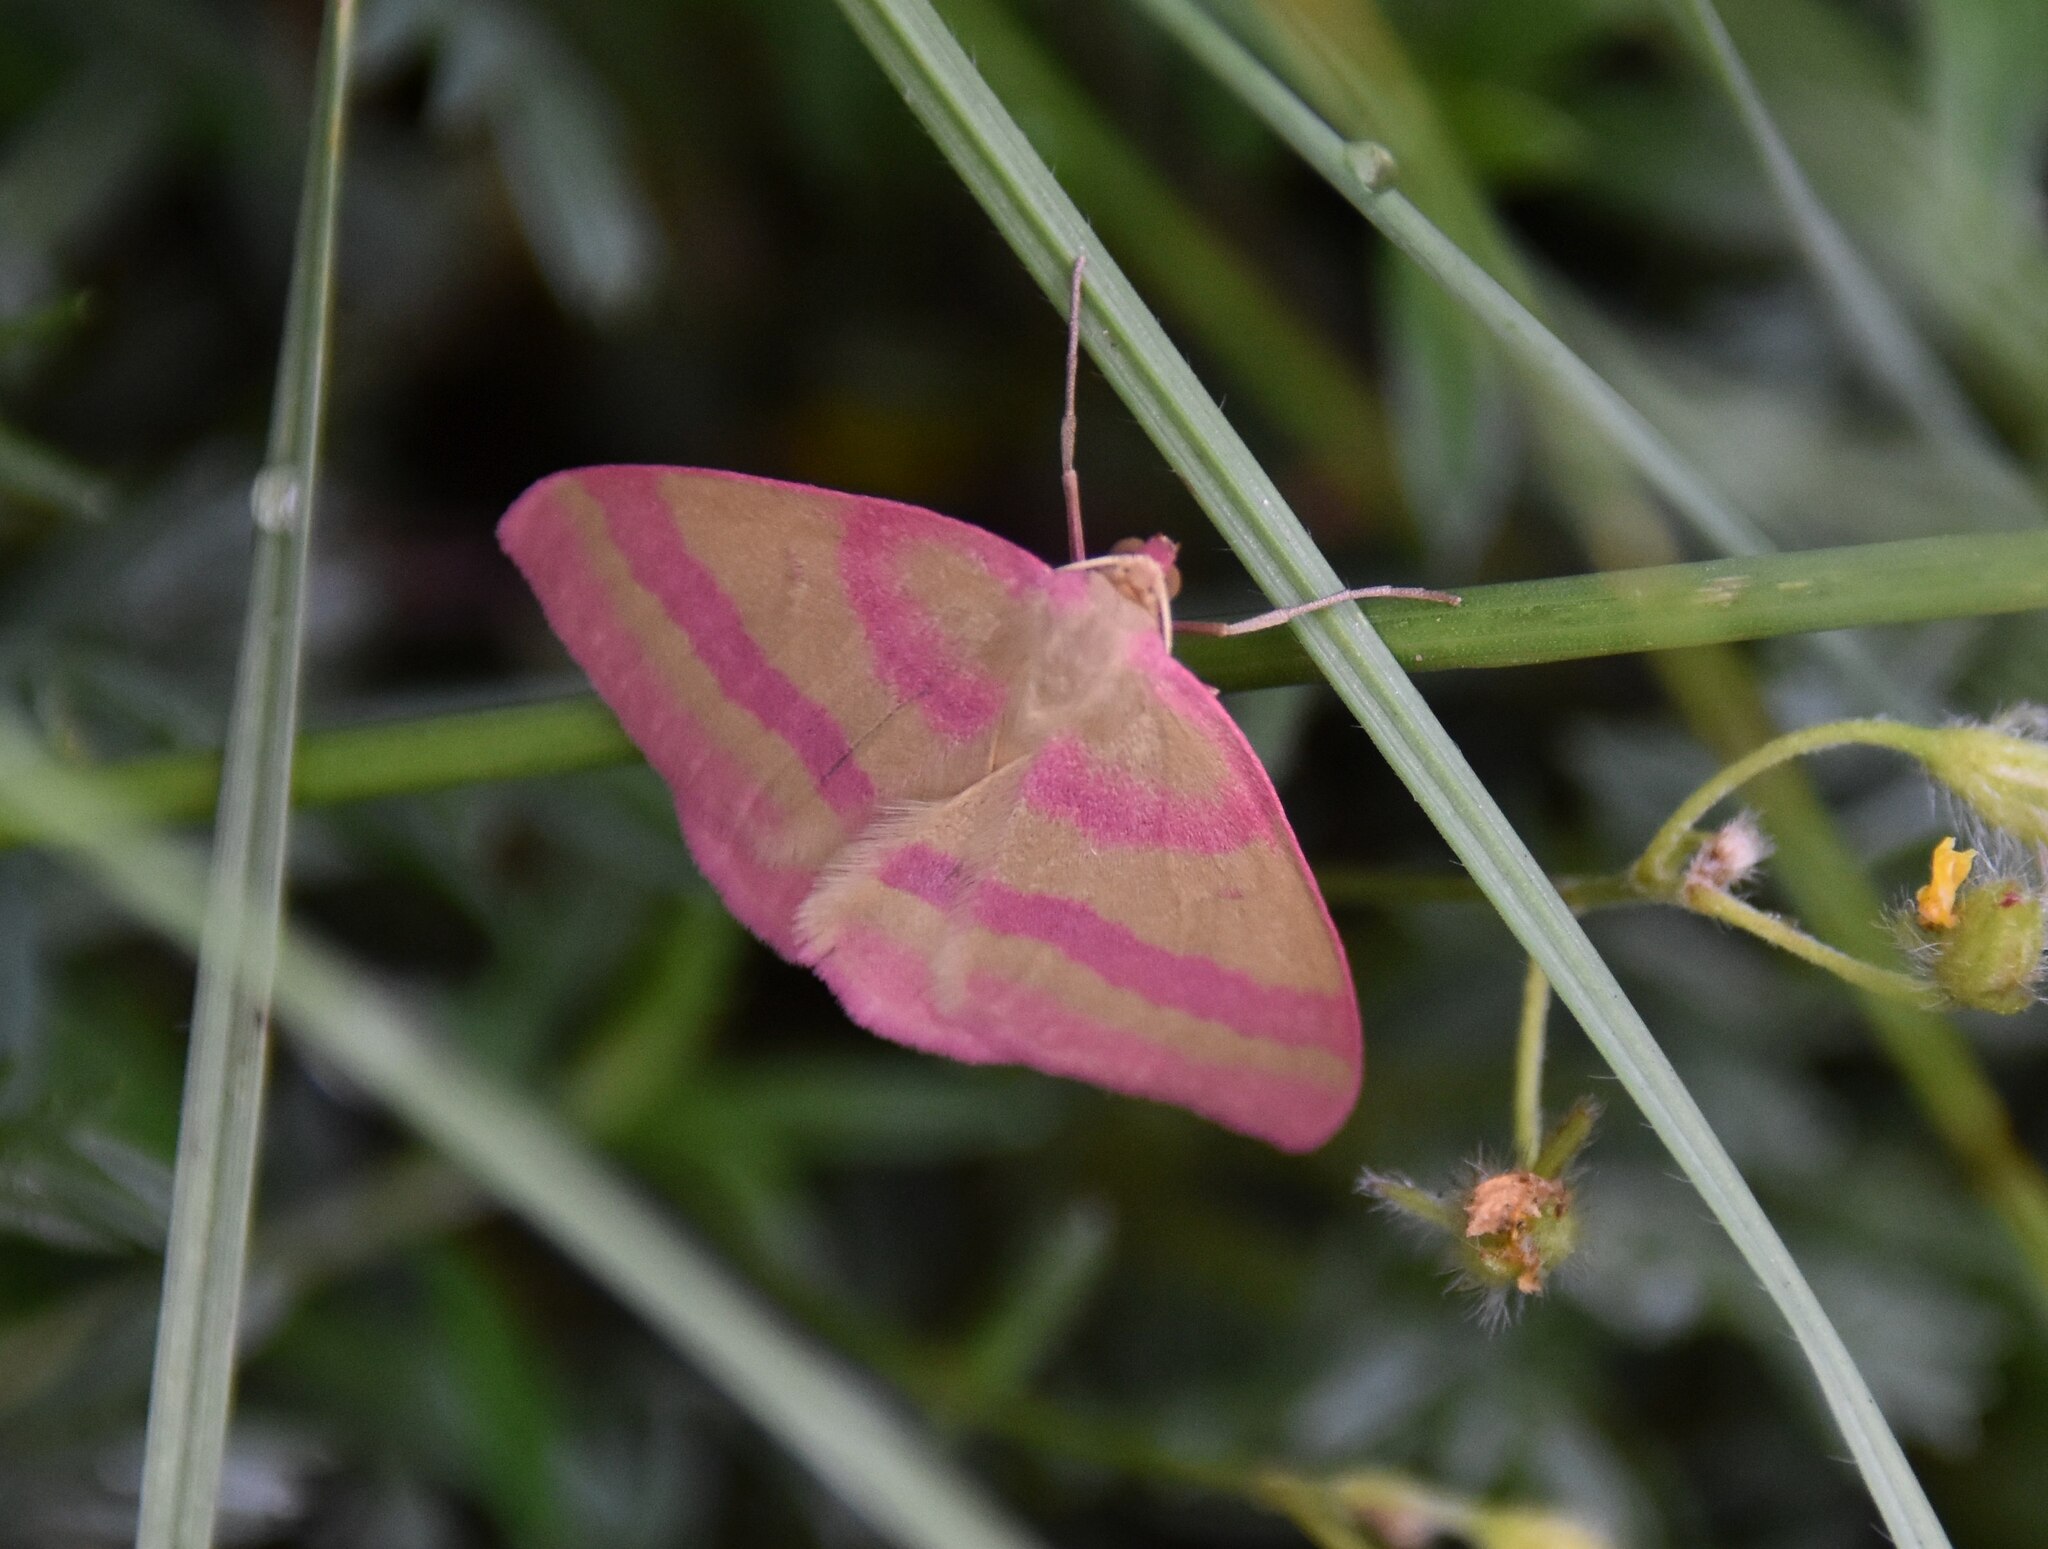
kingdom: Animalia
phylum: Arthropoda
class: Insecta
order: Lepidoptera
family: Geometridae
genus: Rhodostrophia
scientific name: Rhodostrophia calabra
